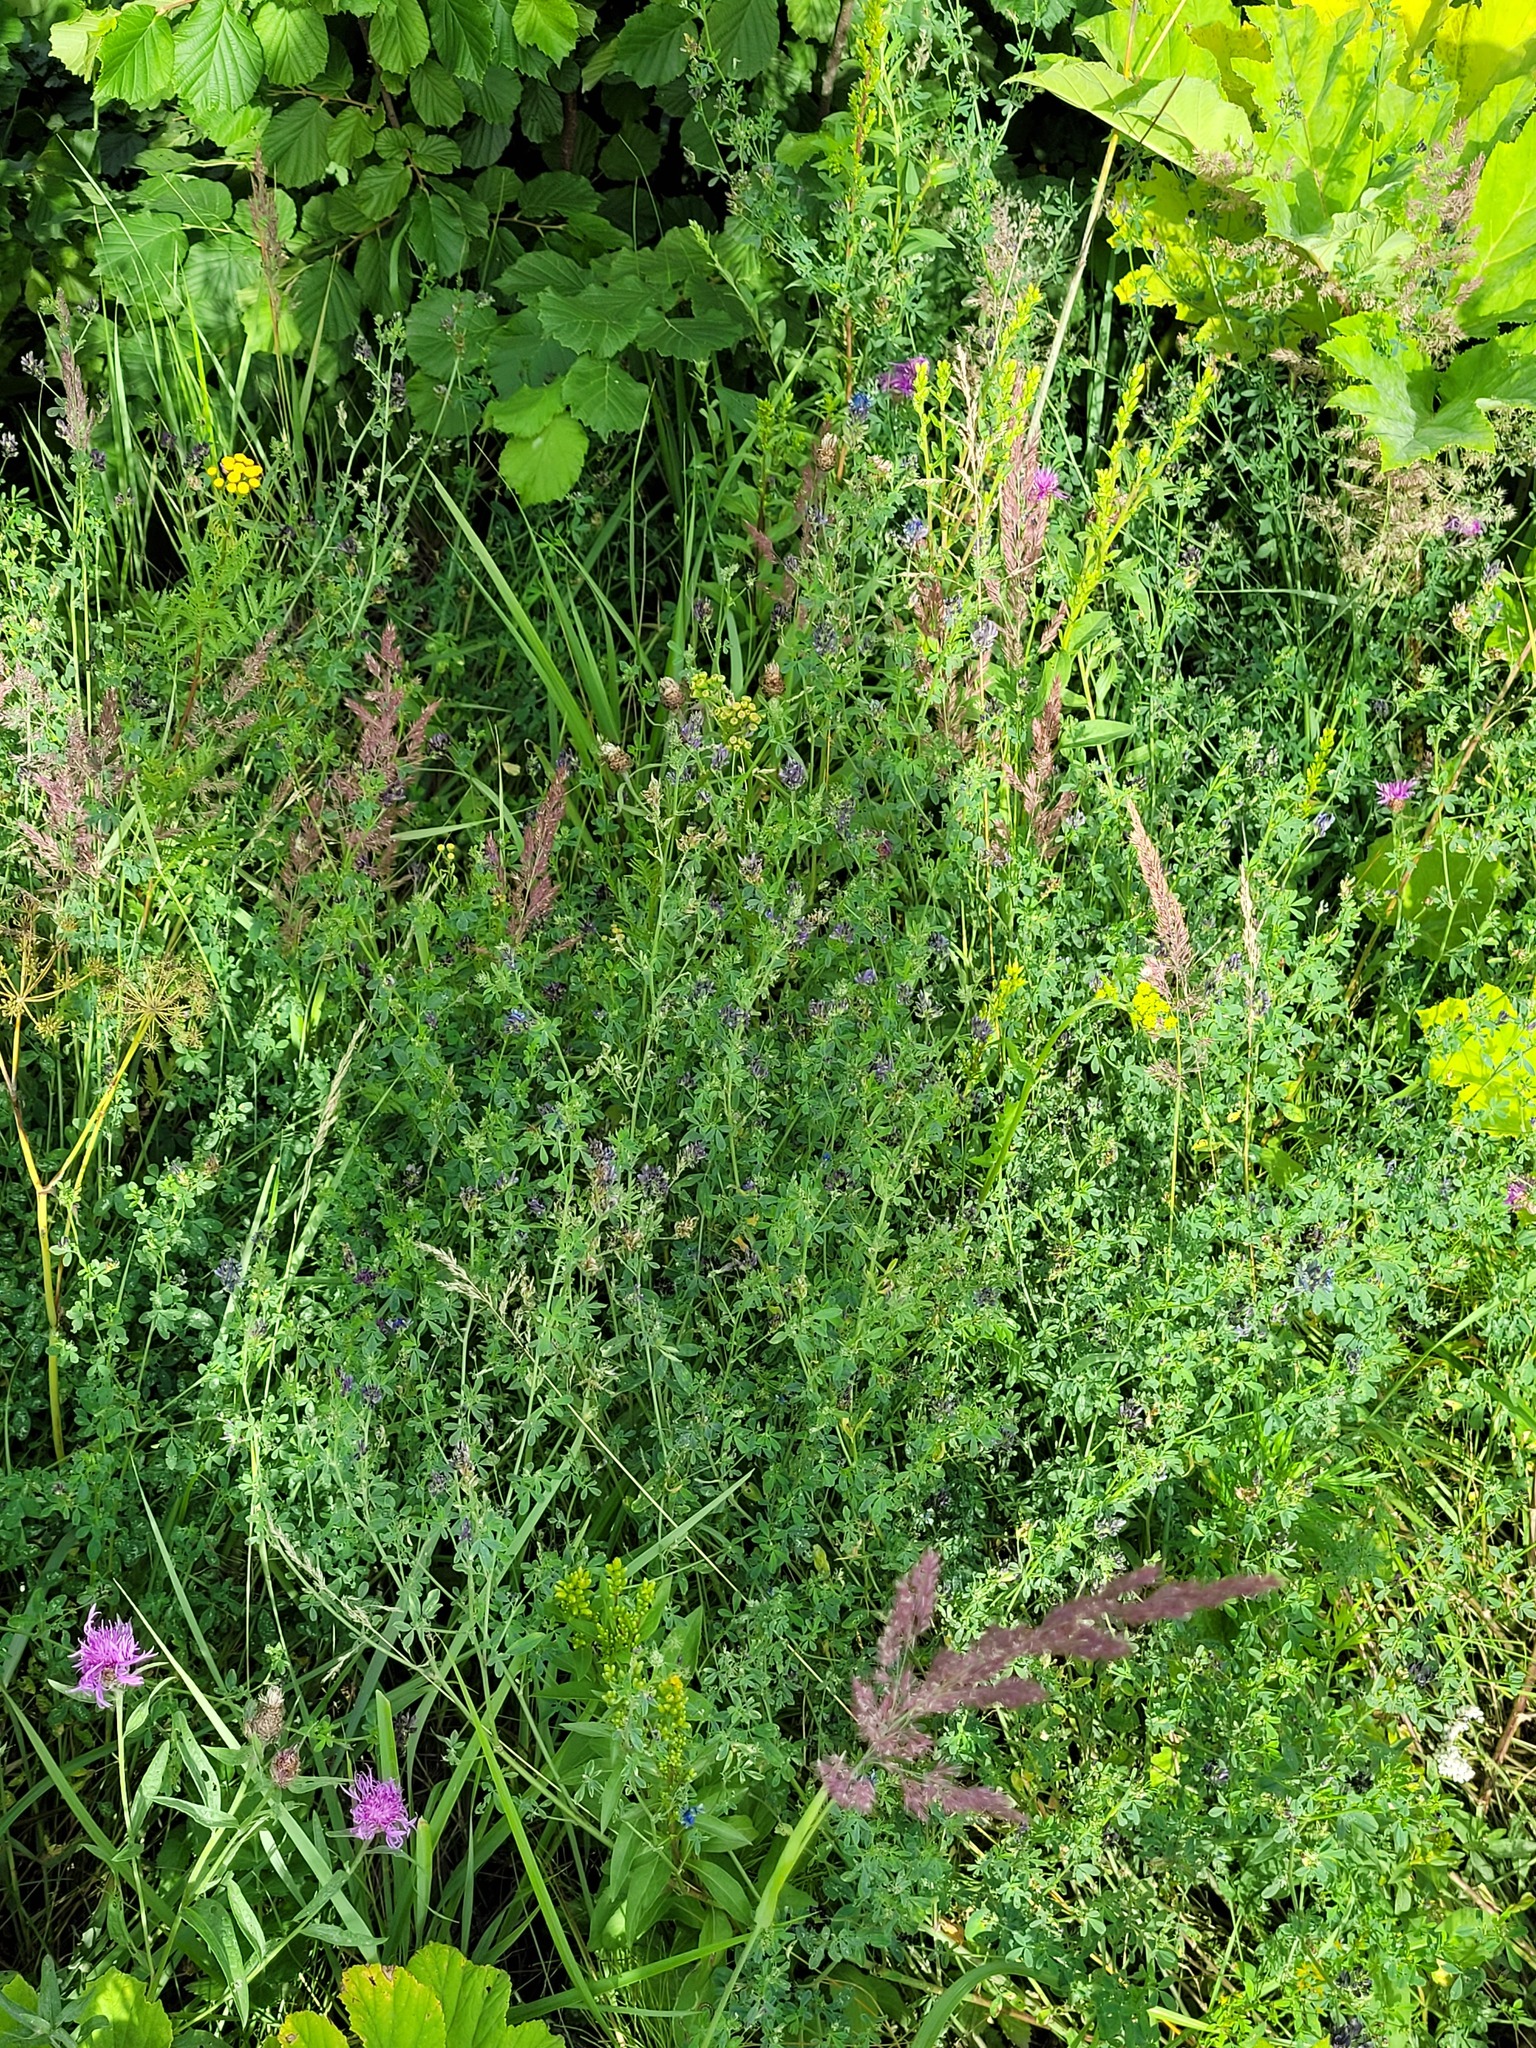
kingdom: Plantae
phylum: Tracheophyta
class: Magnoliopsida
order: Fabales
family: Fabaceae
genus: Medicago
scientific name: Medicago varia
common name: Sand lucerne
